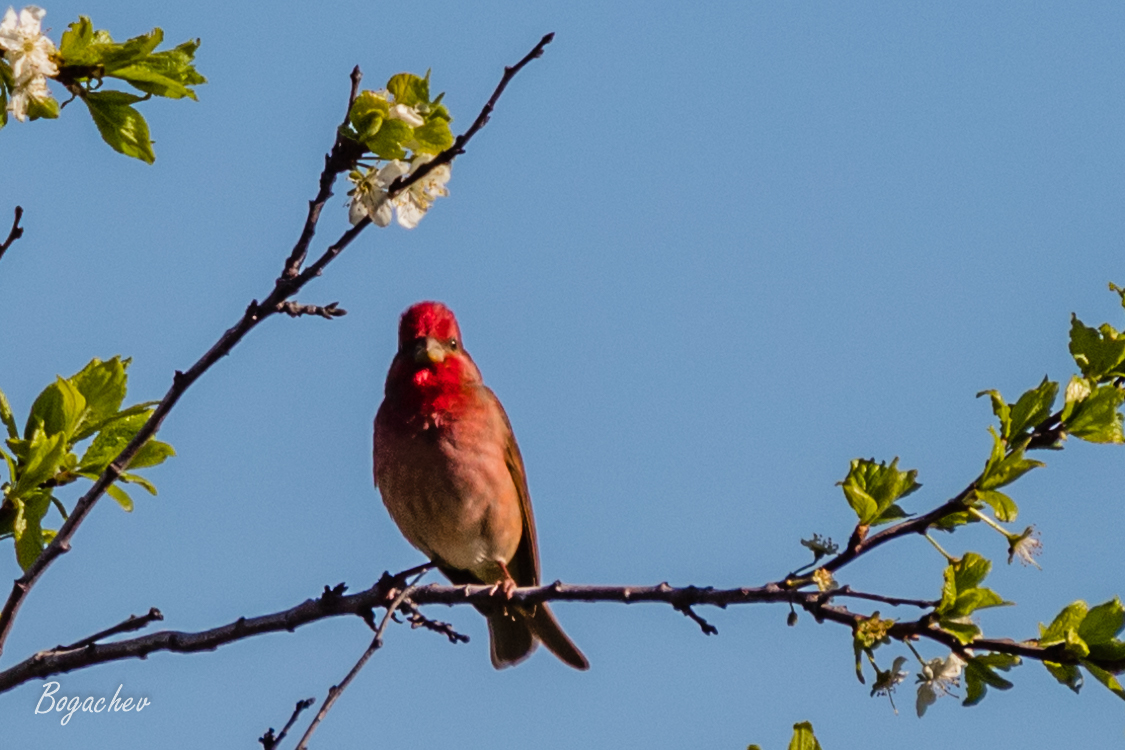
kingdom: Animalia
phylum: Chordata
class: Aves
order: Passeriformes
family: Fringillidae
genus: Carpodacus
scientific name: Carpodacus erythrinus
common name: Common rosefinch
